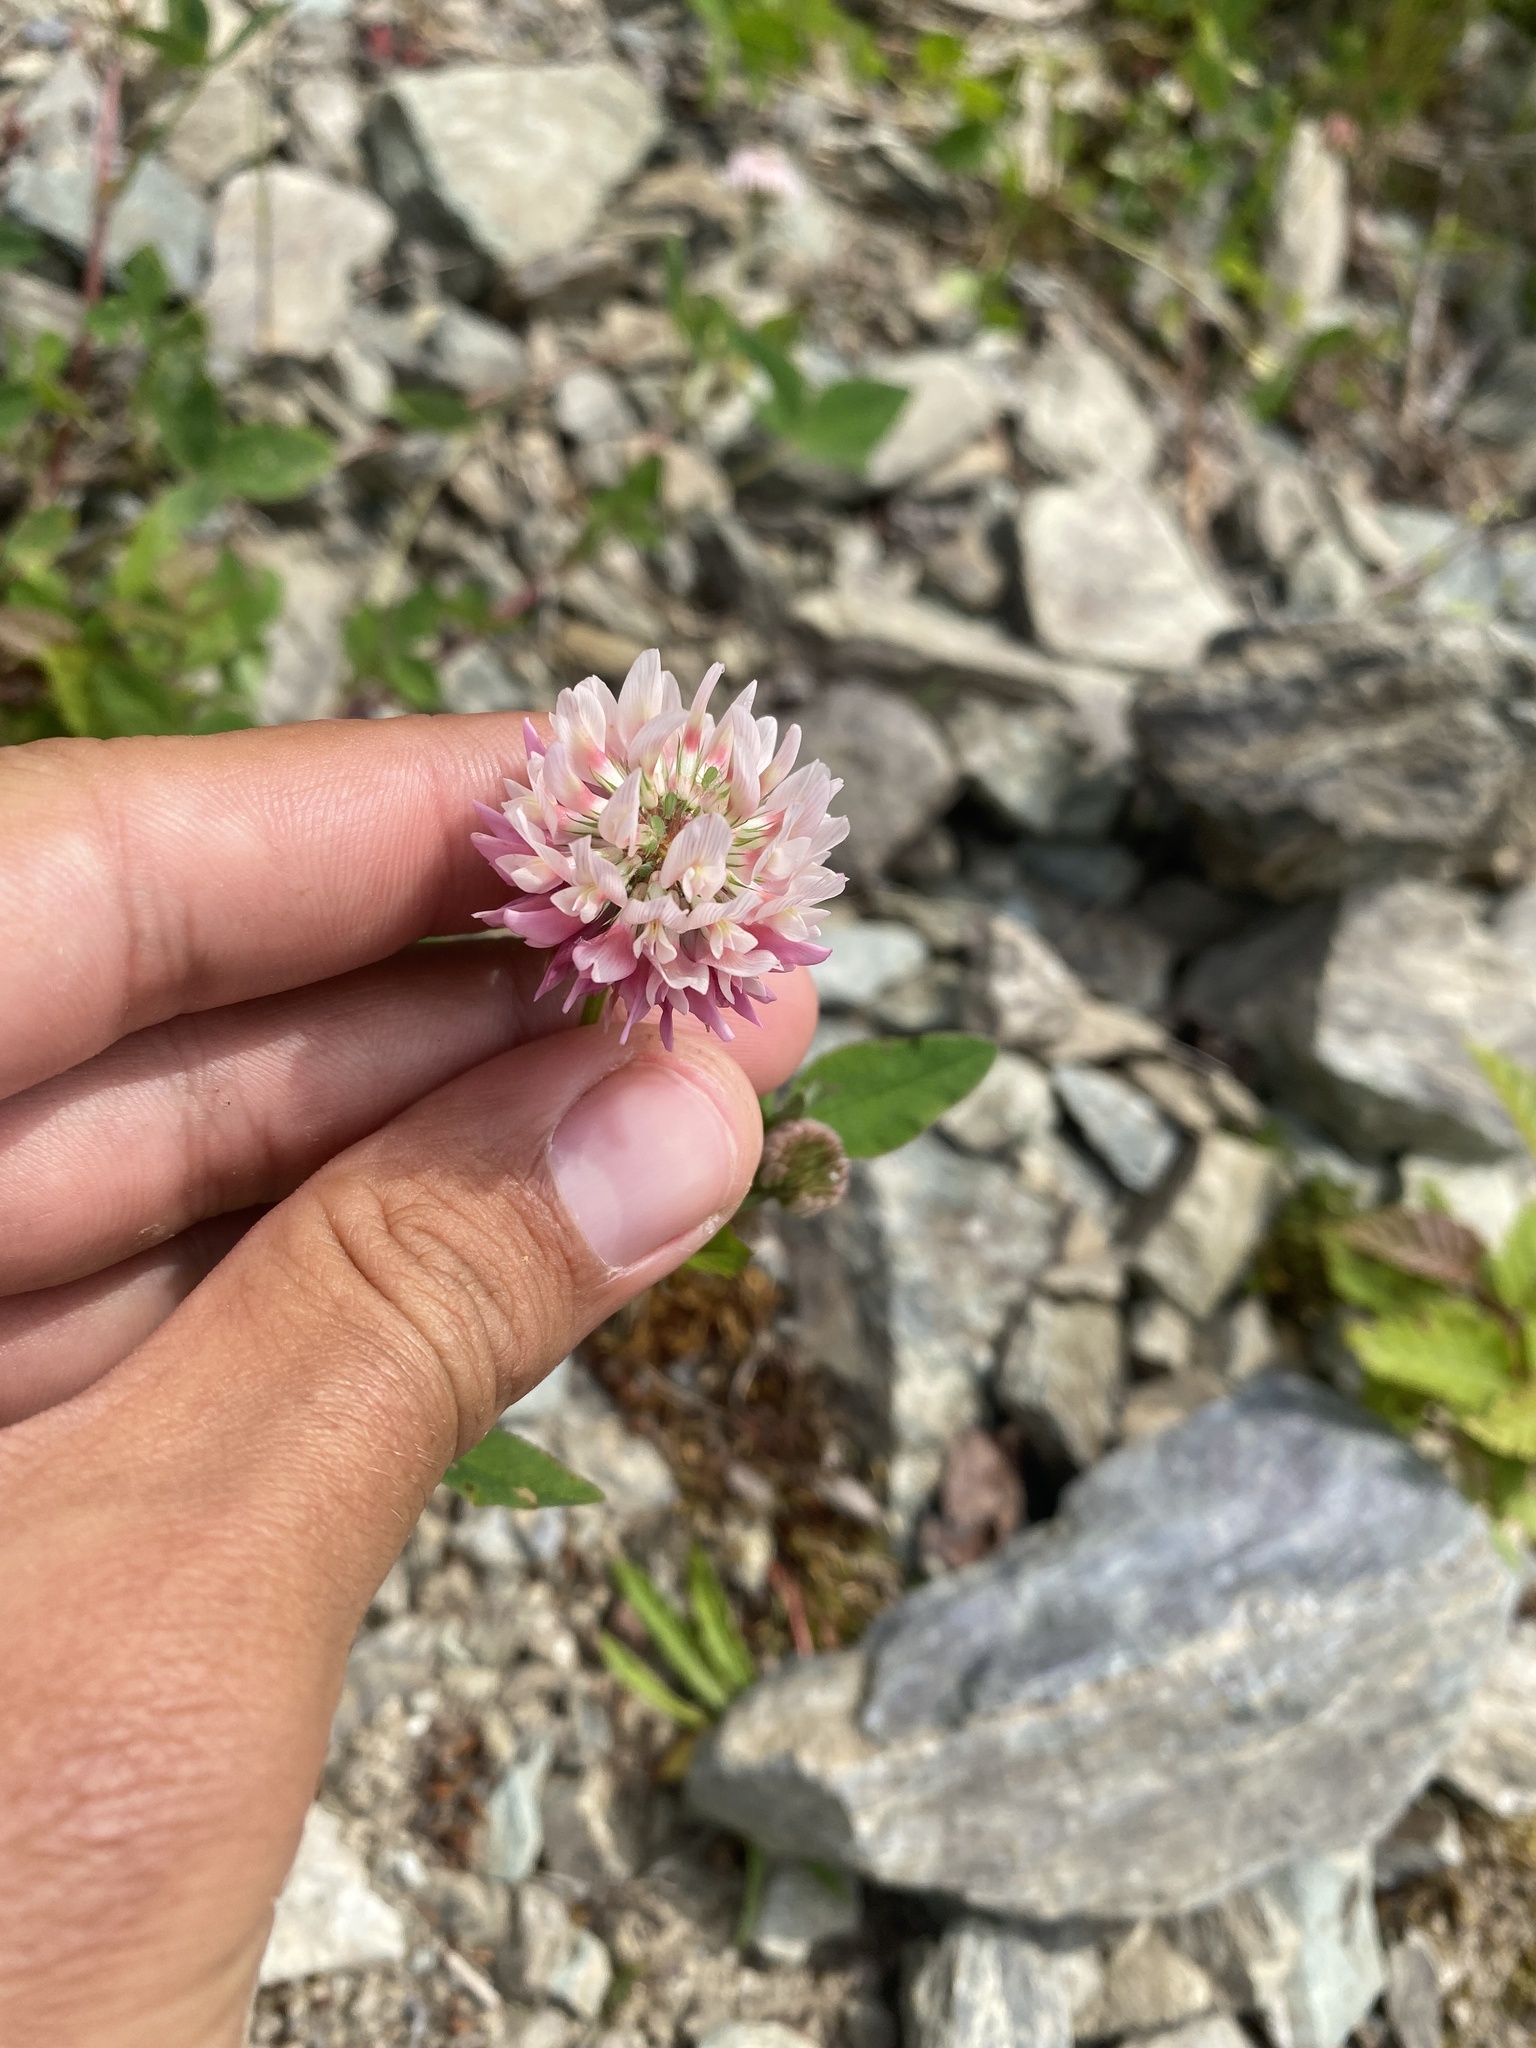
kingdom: Plantae
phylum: Tracheophyta
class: Magnoliopsida
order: Fabales
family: Fabaceae
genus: Trifolium
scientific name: Trifolium hybridum
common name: Alsike clover
